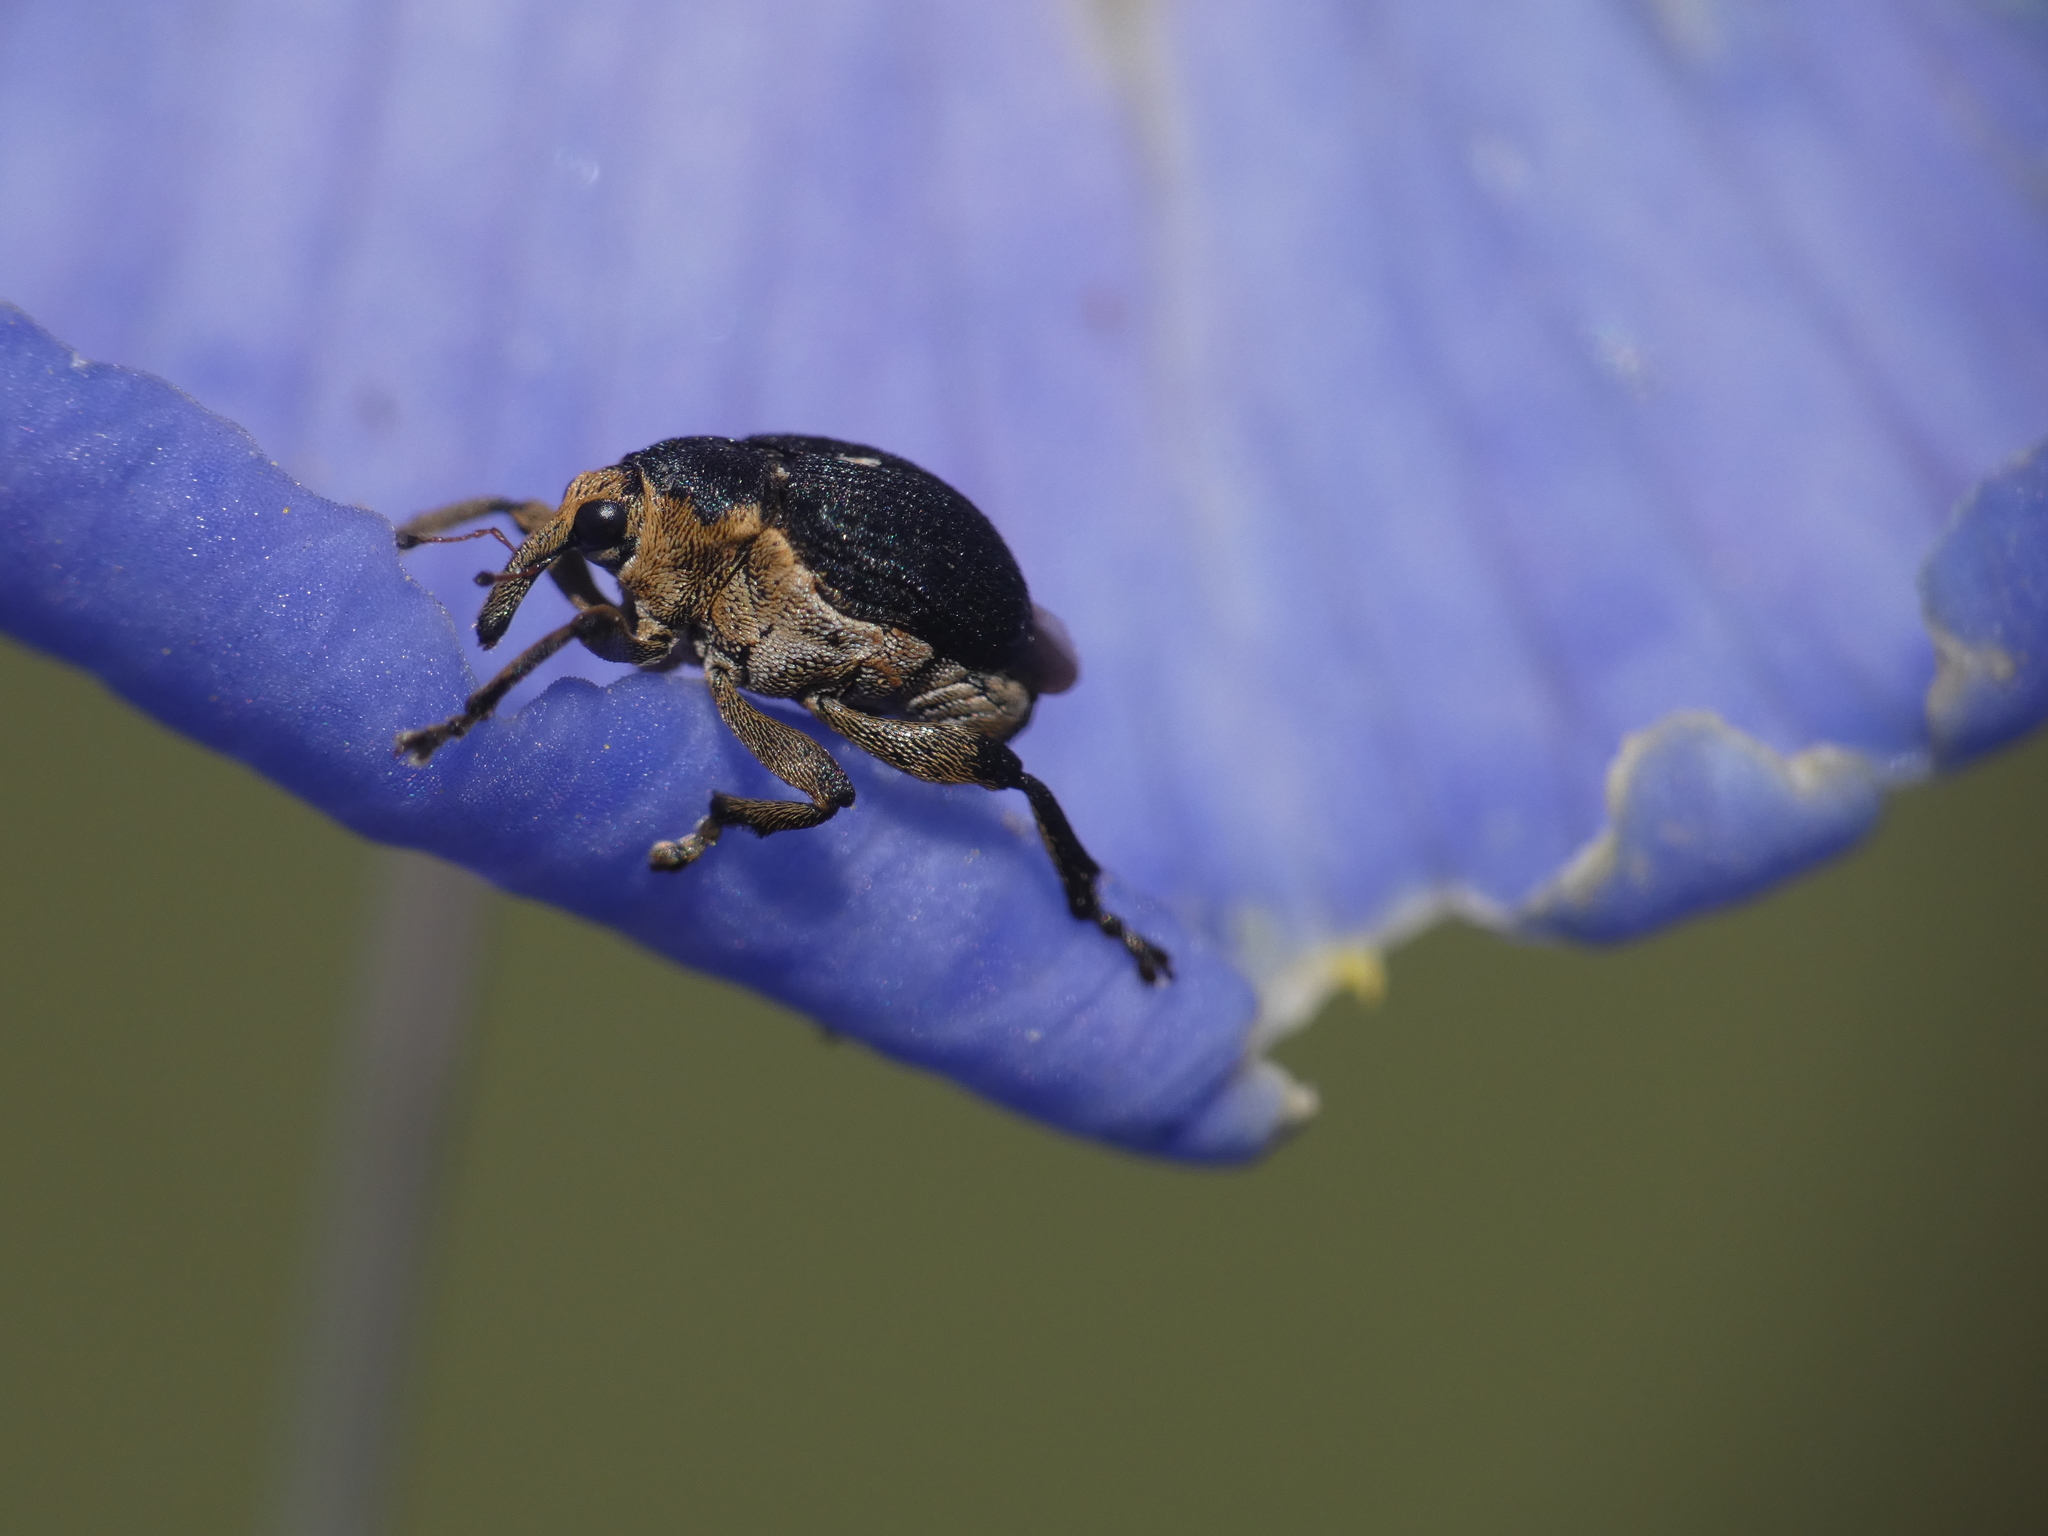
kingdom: Animalia
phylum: Arthropoda
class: Insecta
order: Coleoptera
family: Curculionidae
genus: Mononychus
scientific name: Mononychus punctumalbum
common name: Iris weevil
